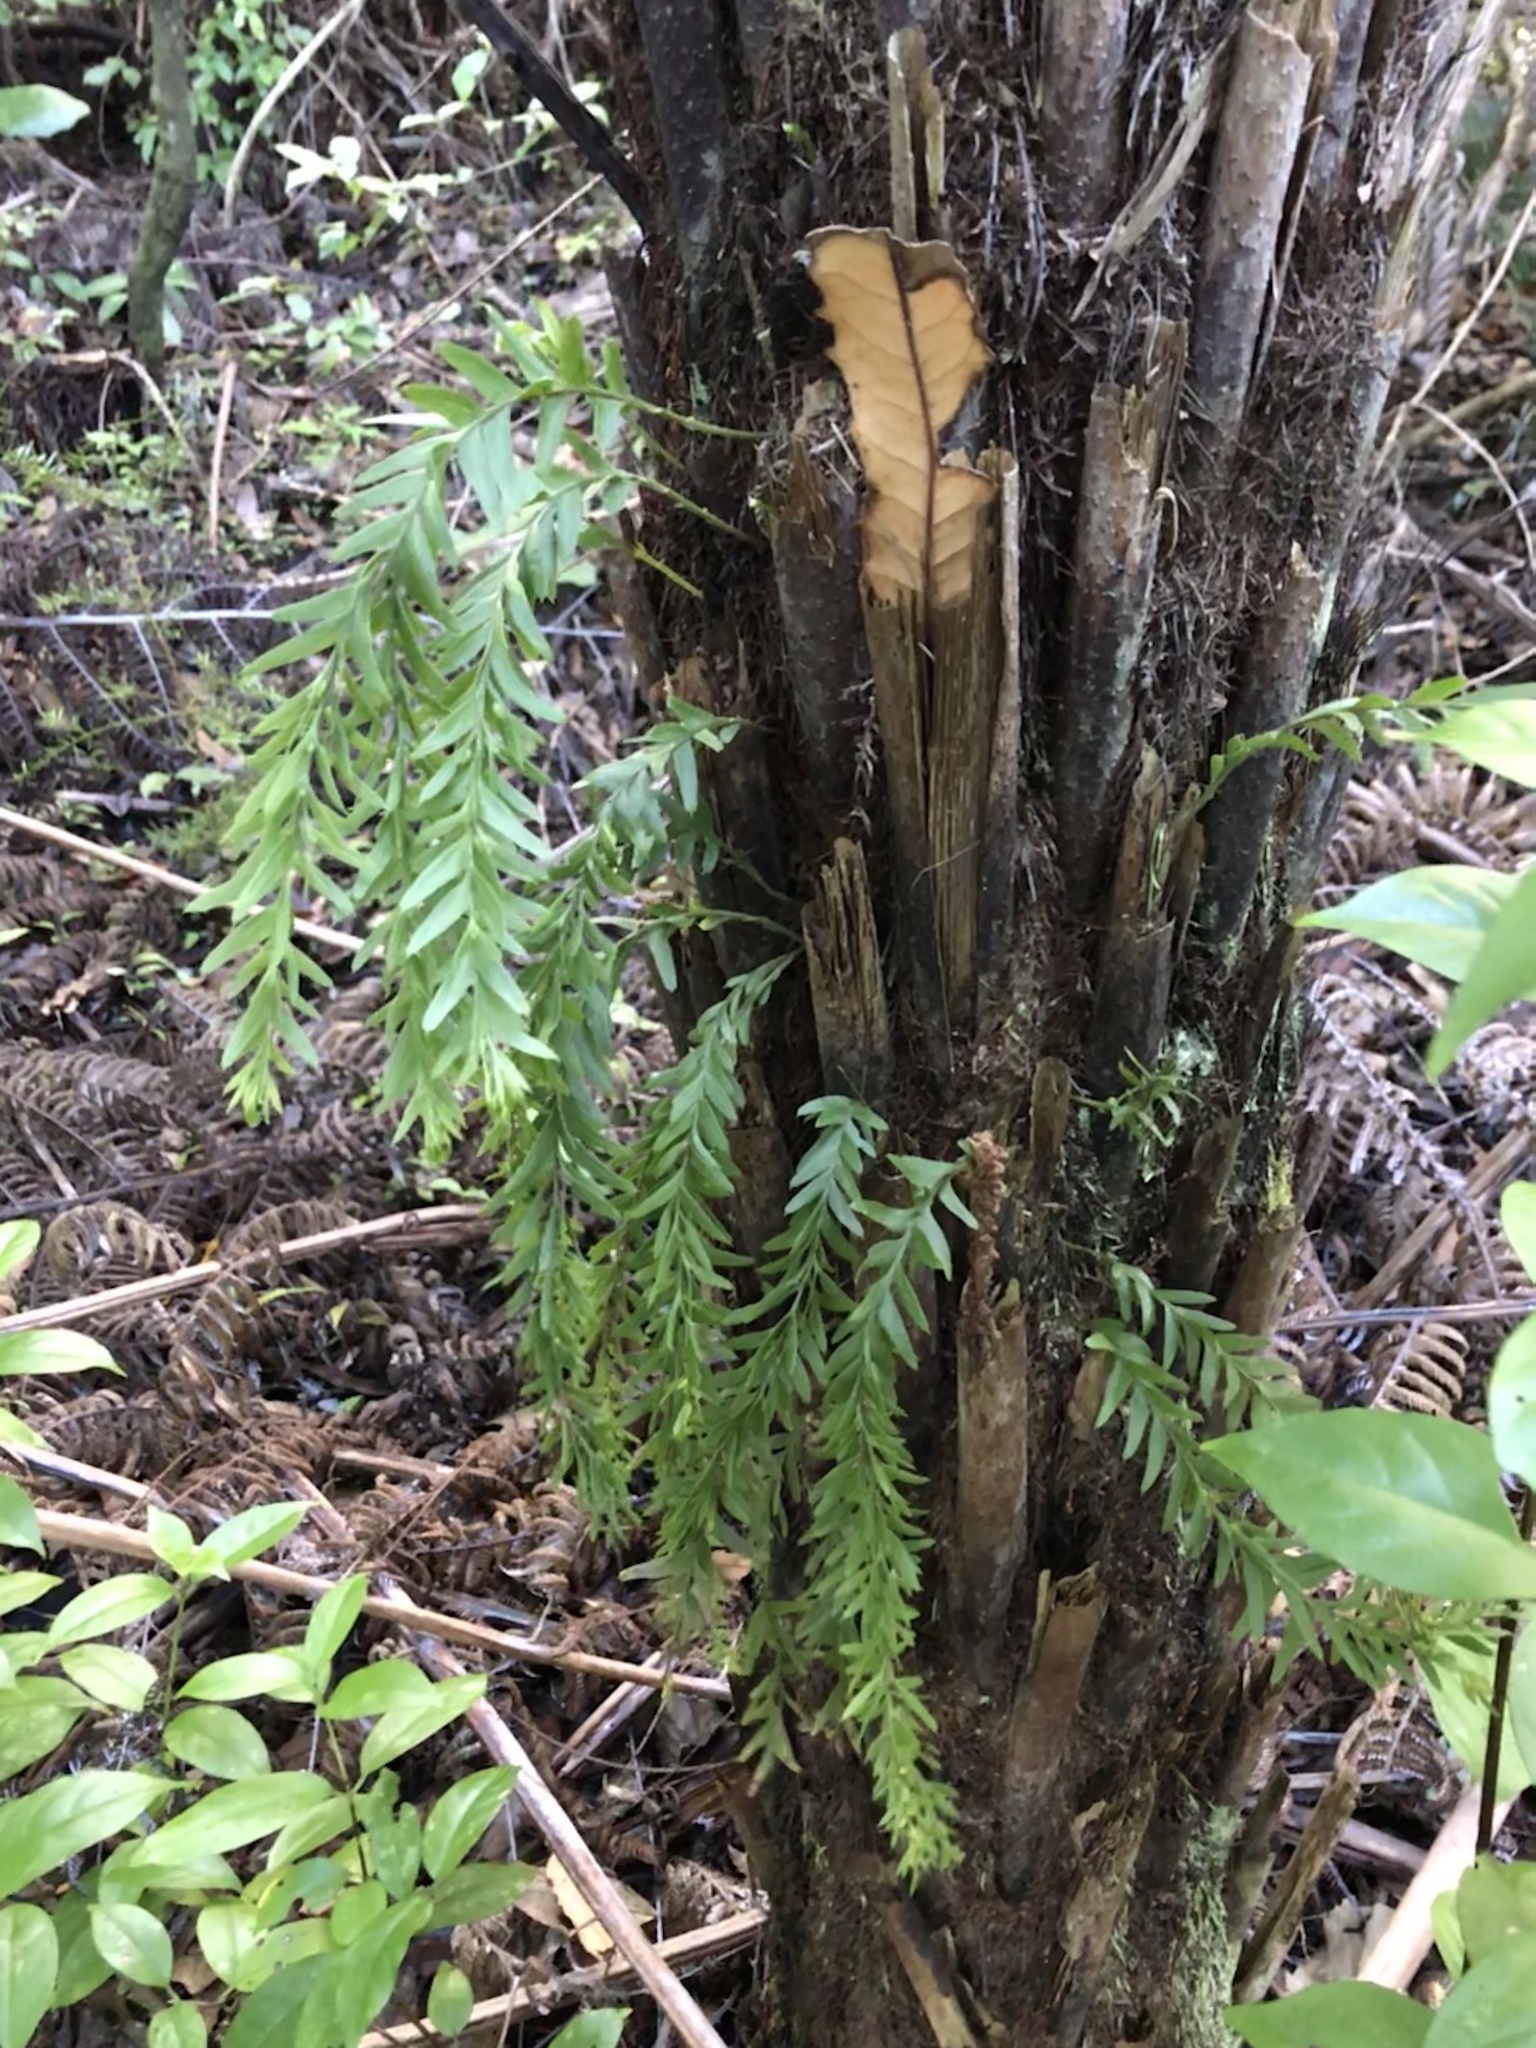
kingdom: Plantae
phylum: Tracheophyta
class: Polypodiopsida
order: Psilotales
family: Psilotaceae
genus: Tmesipteris
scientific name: Tmesipteris elongata
